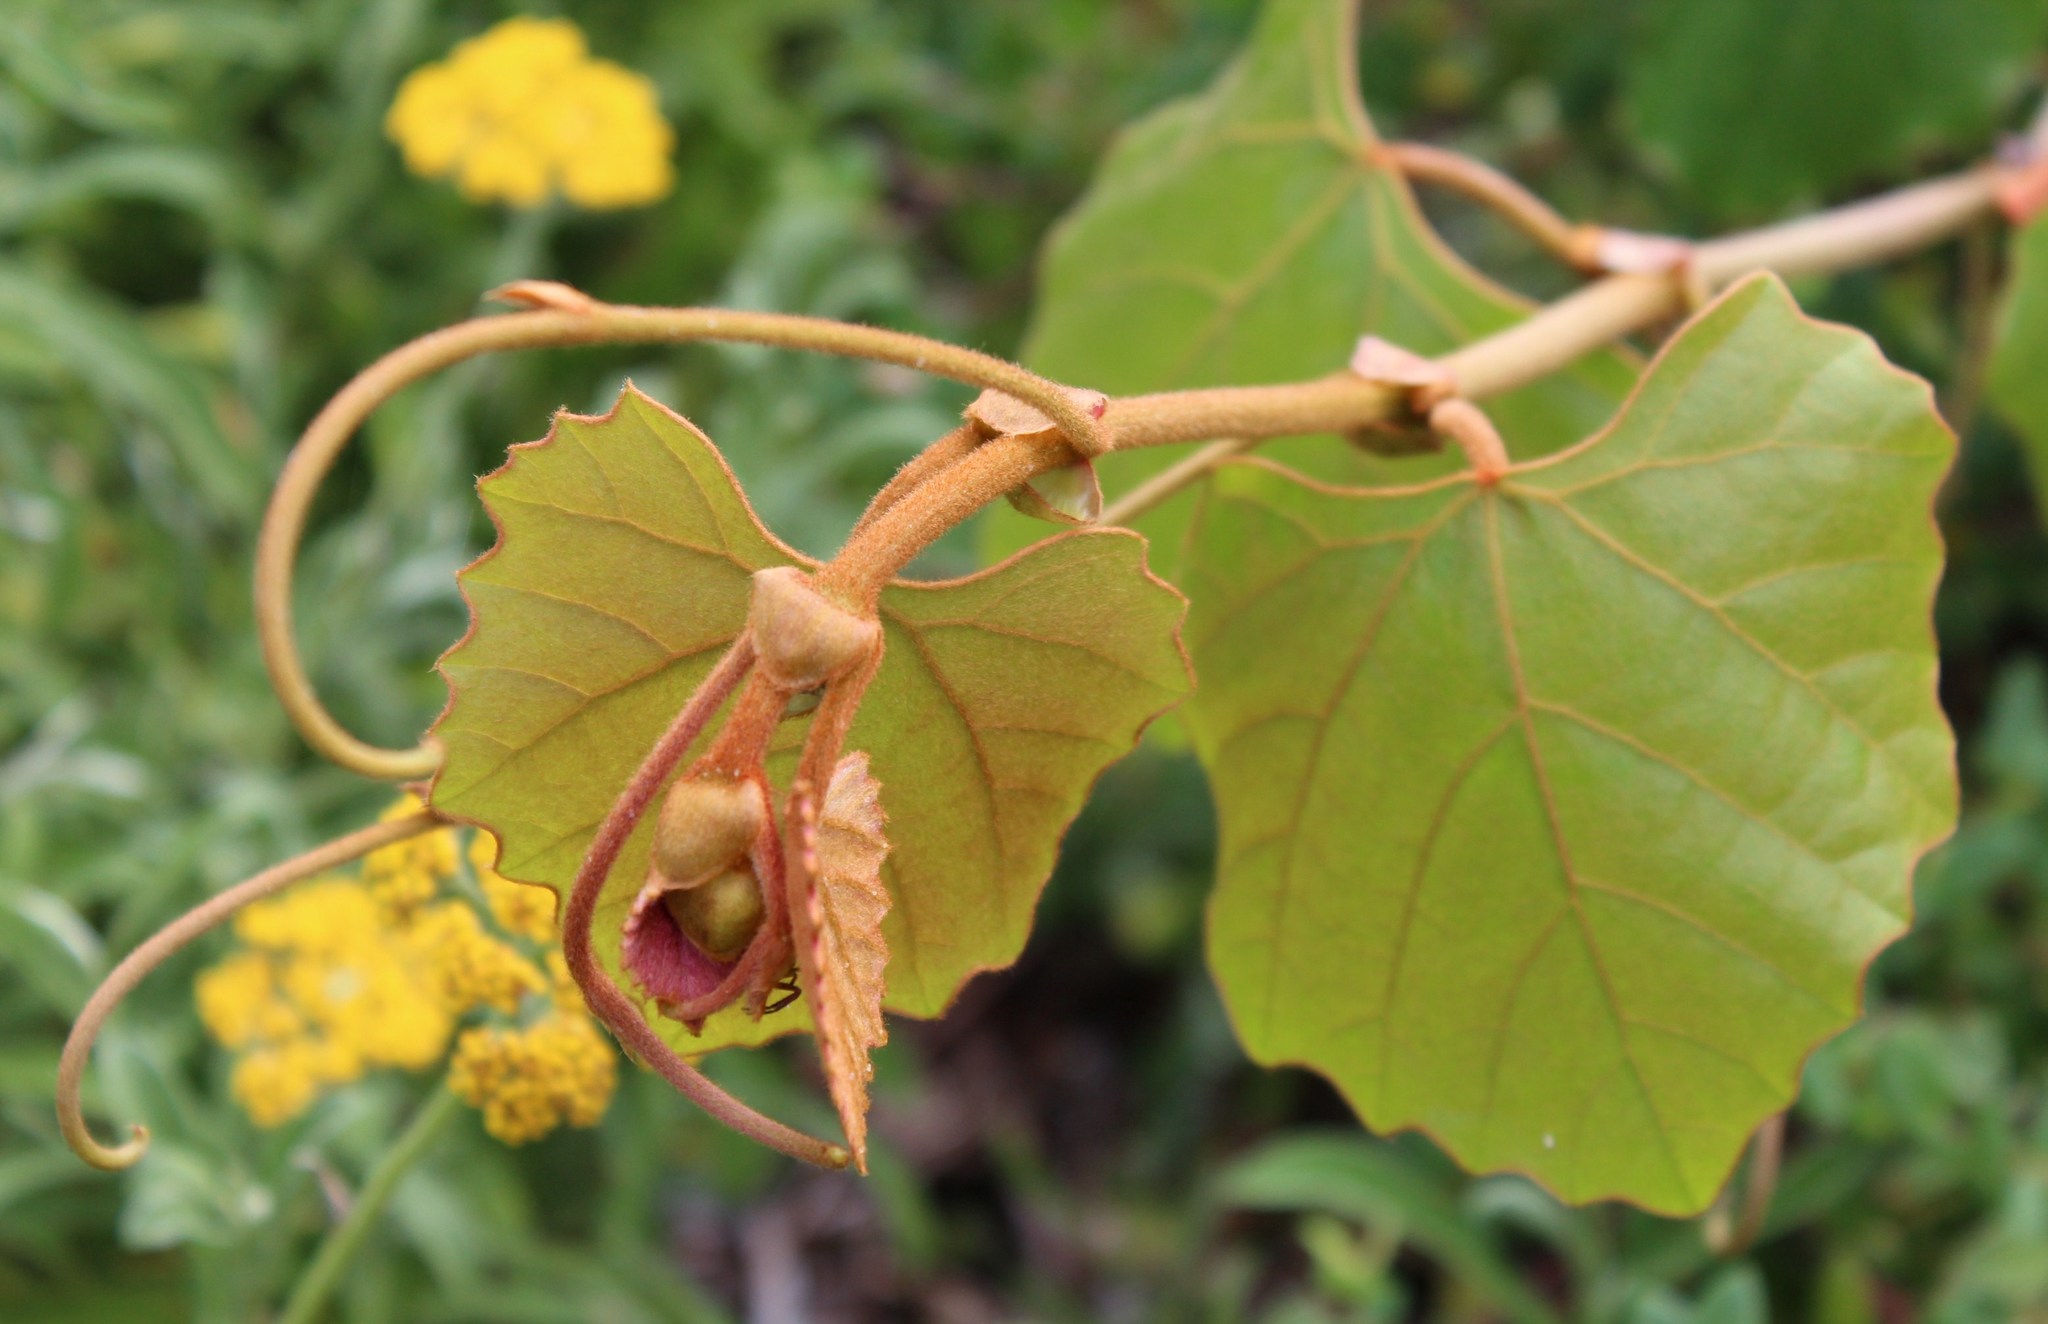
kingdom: Plantae
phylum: Tracheophyta
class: Magnoliopsida
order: Vitales
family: Vitaceae
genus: Rhoicissus
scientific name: Rhoicissus tomentosa
